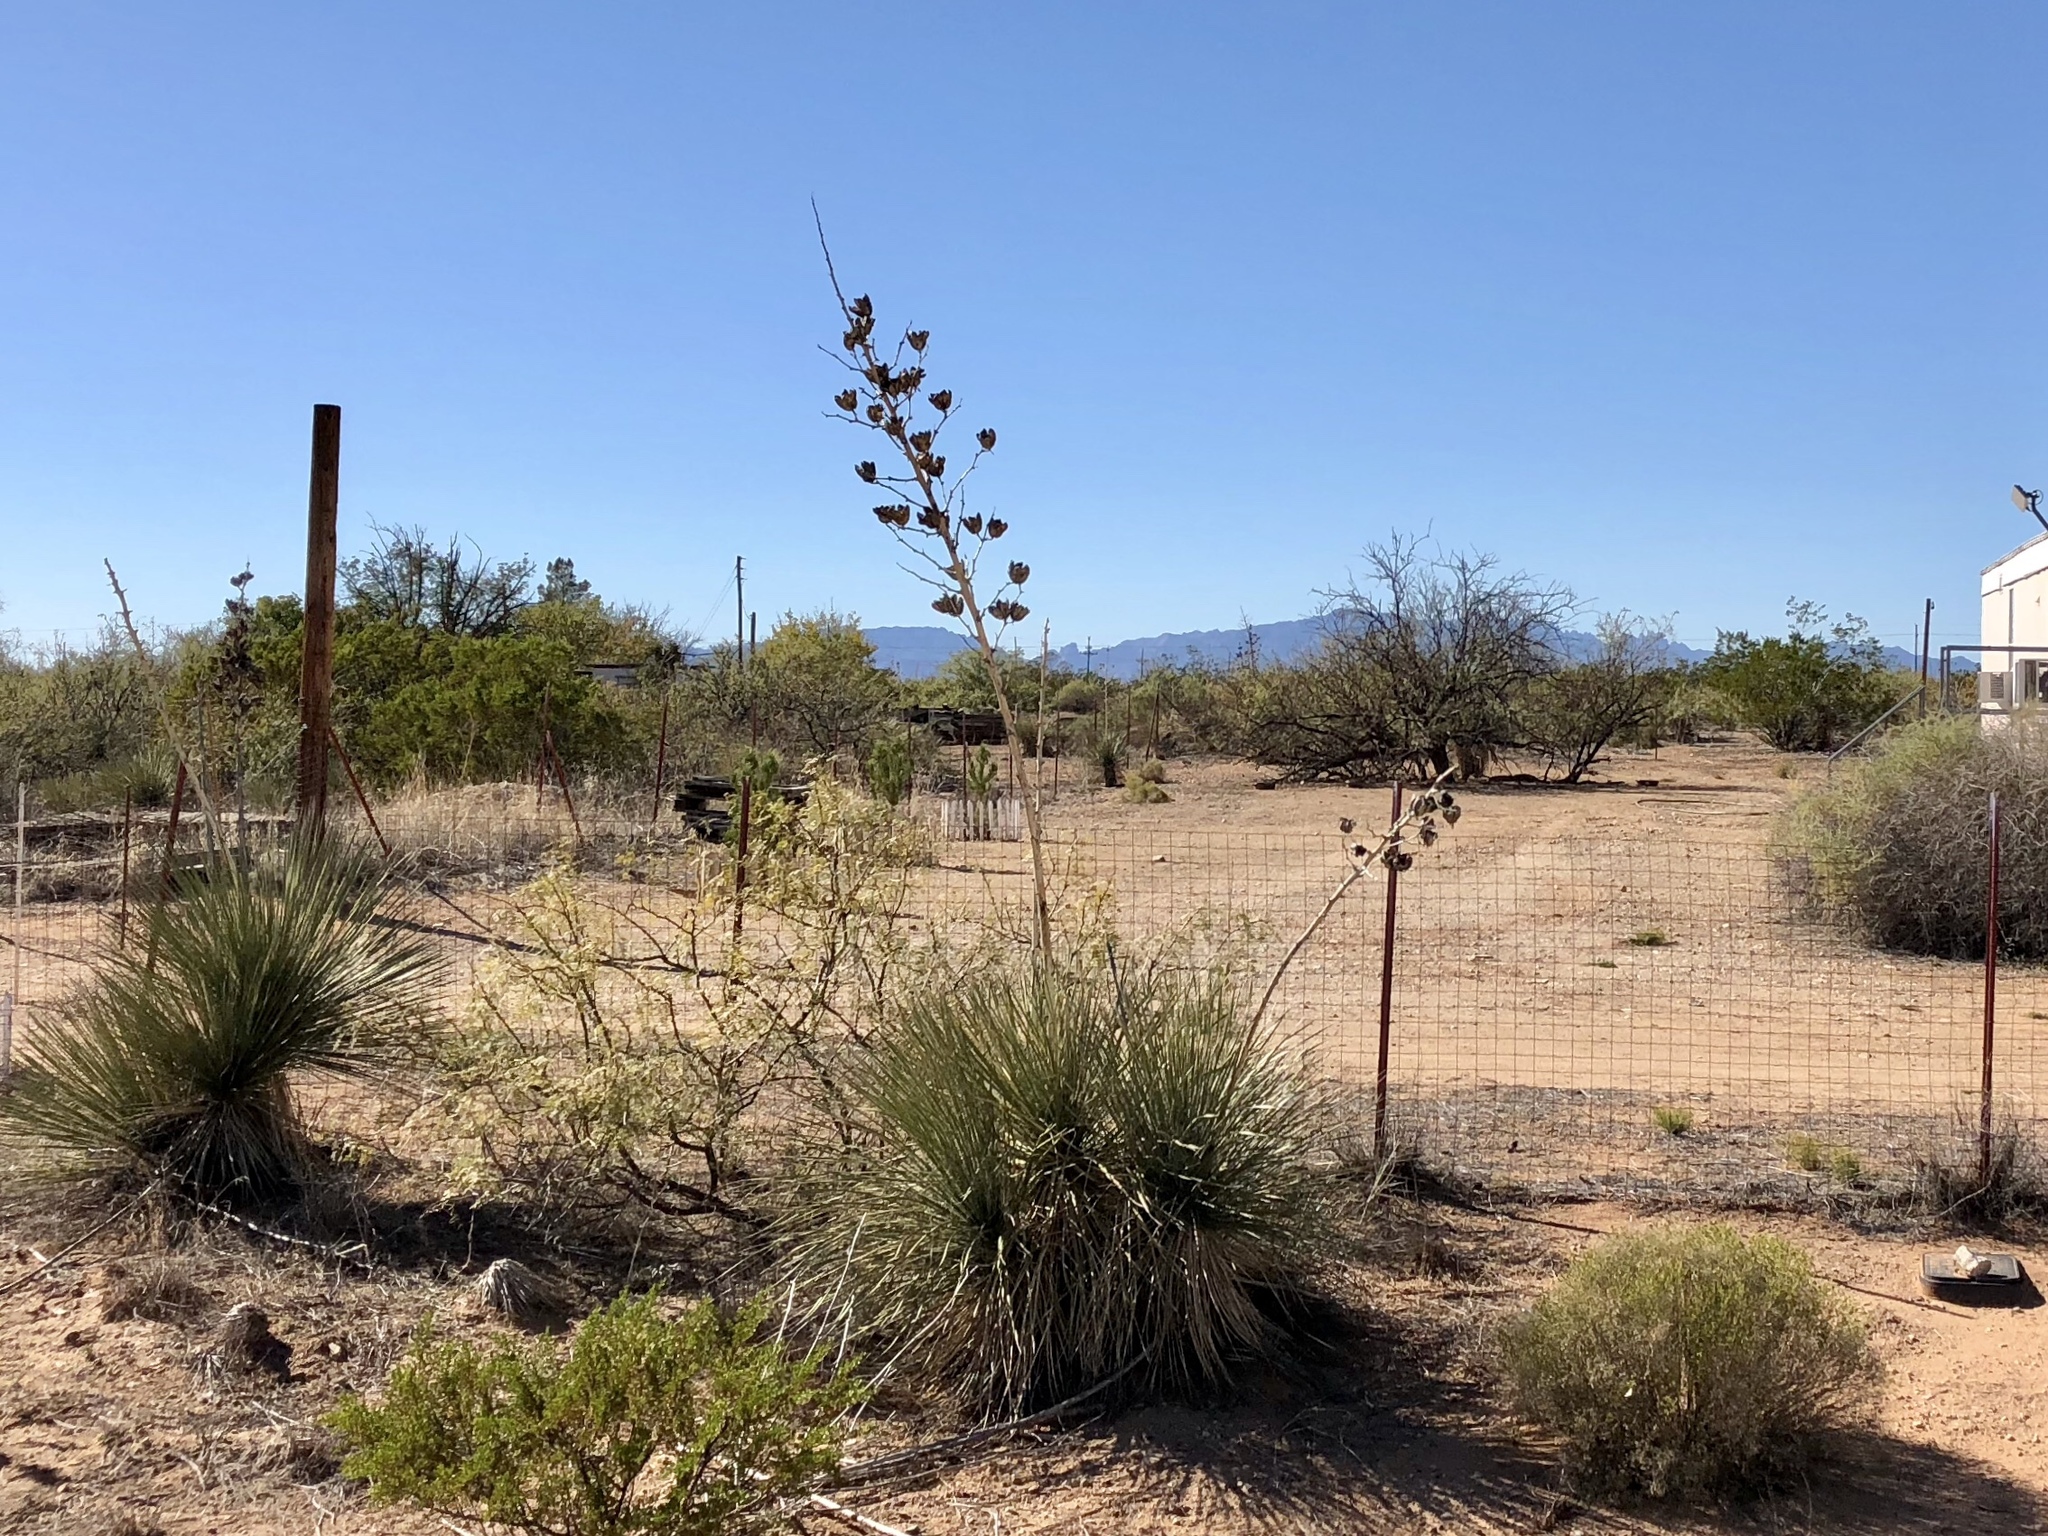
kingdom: Plantae
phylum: Tracheophyta
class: Liliopsida
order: Asparagales
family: Asparagaceae
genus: Yucca
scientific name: Yucca elata
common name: Palmella
